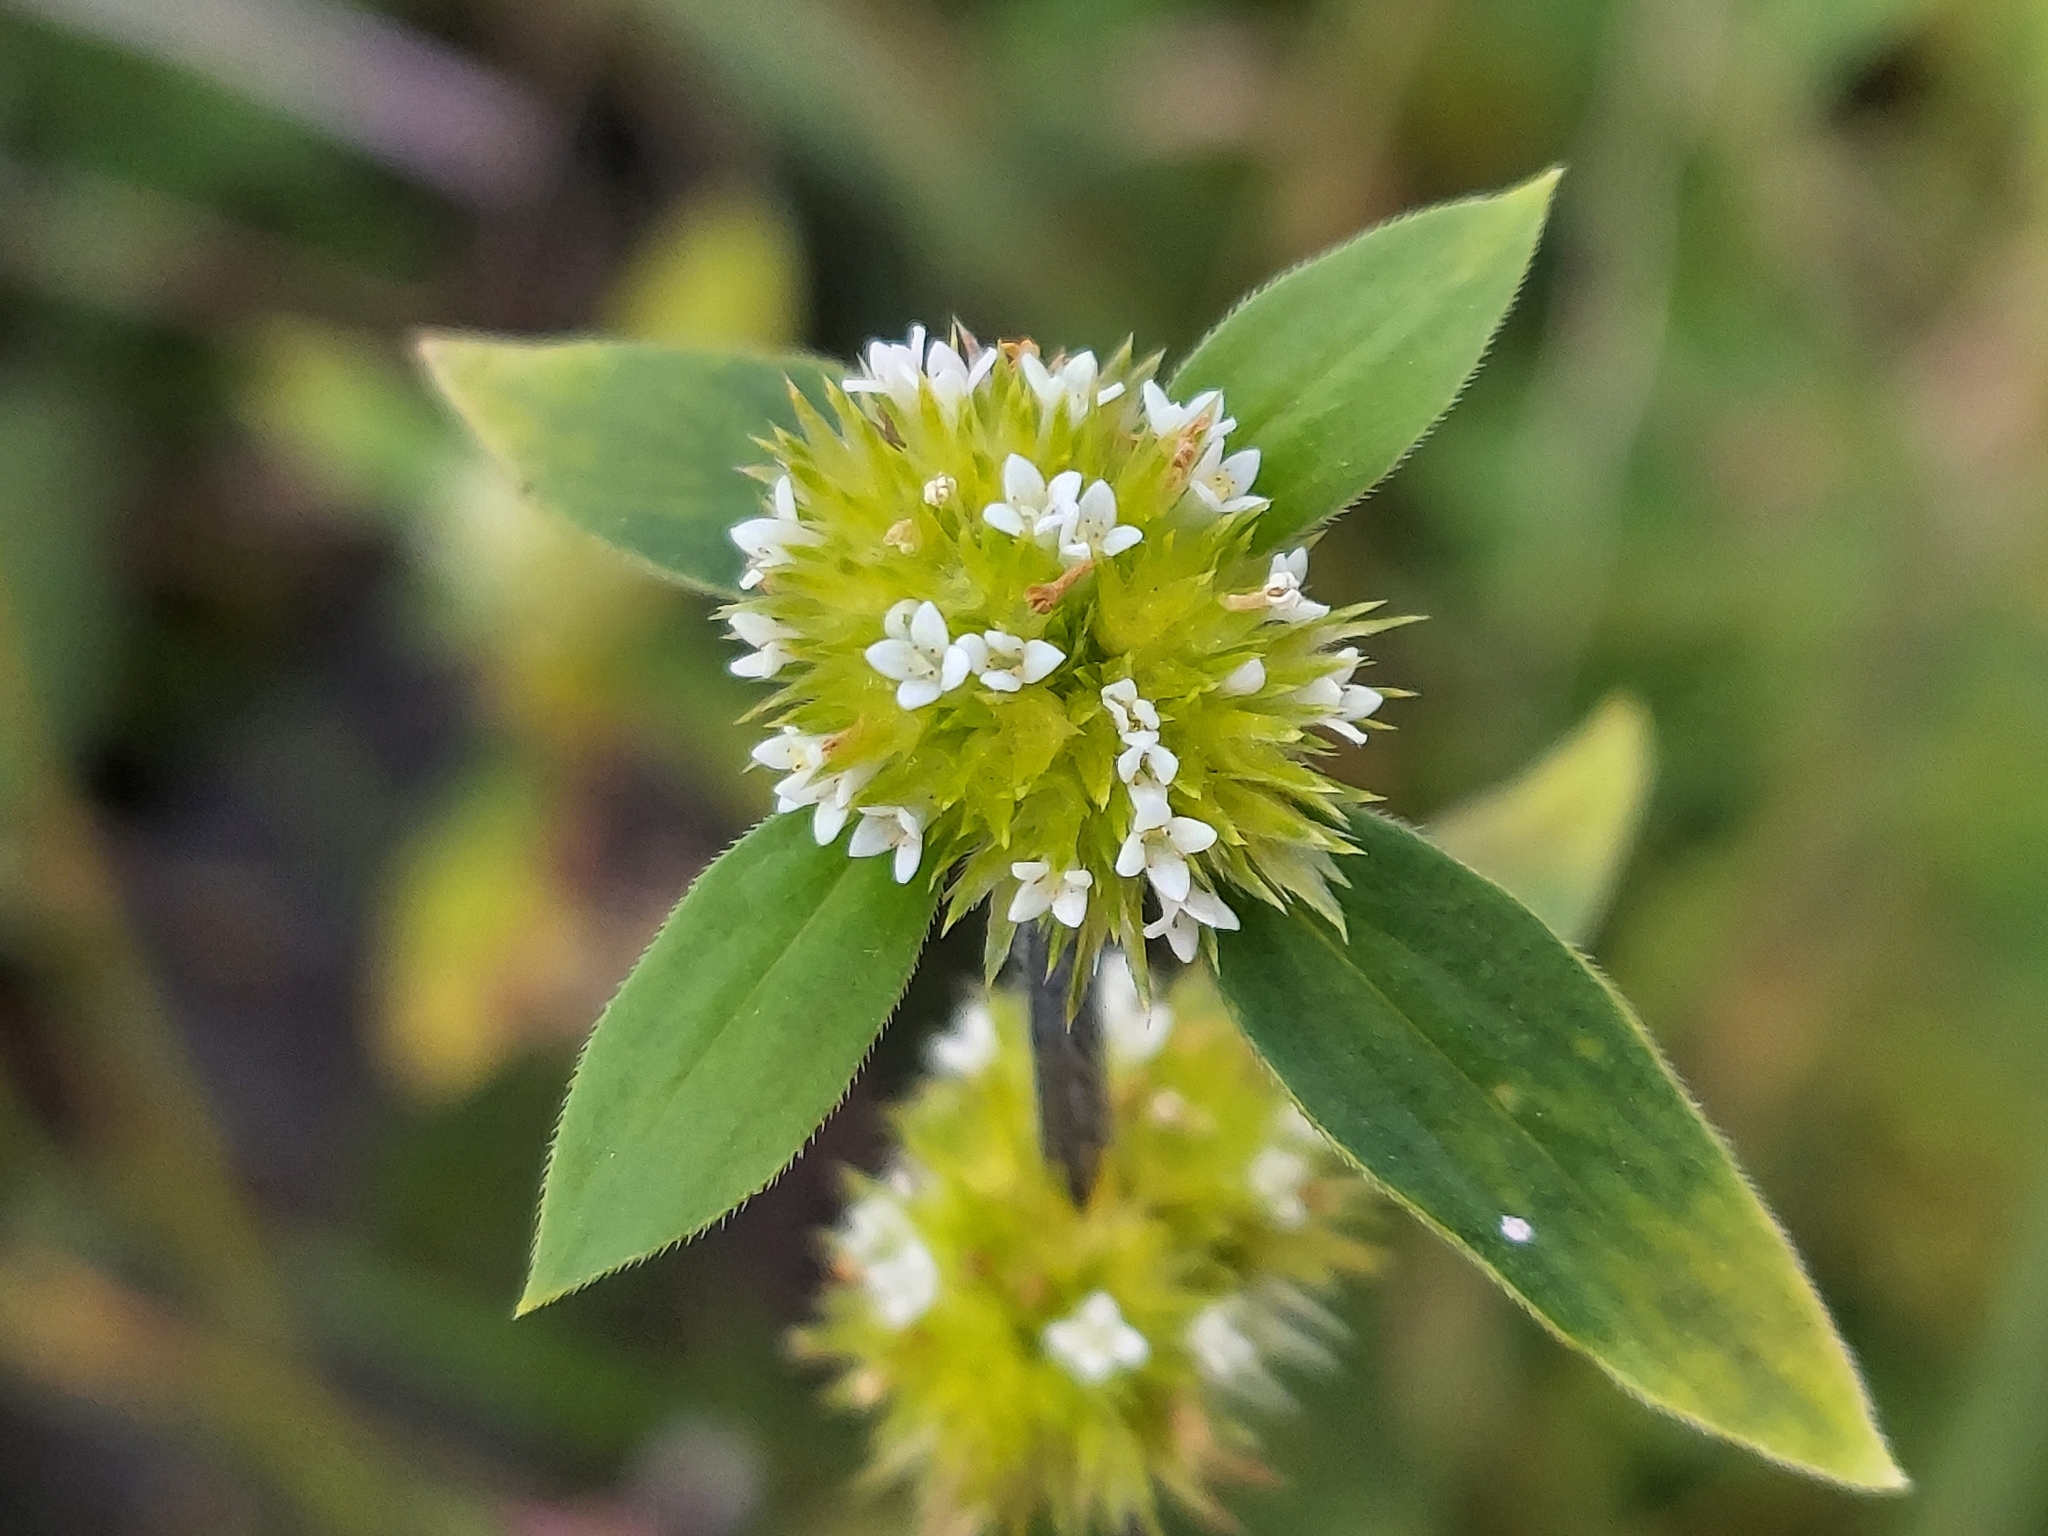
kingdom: Plantae
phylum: Tracheophyta
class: Magnoliopsida
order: Gentianales
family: Rubiaceae
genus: Mitracarpus
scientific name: Mitracarpus hirtus
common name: Tropical girdlepod
